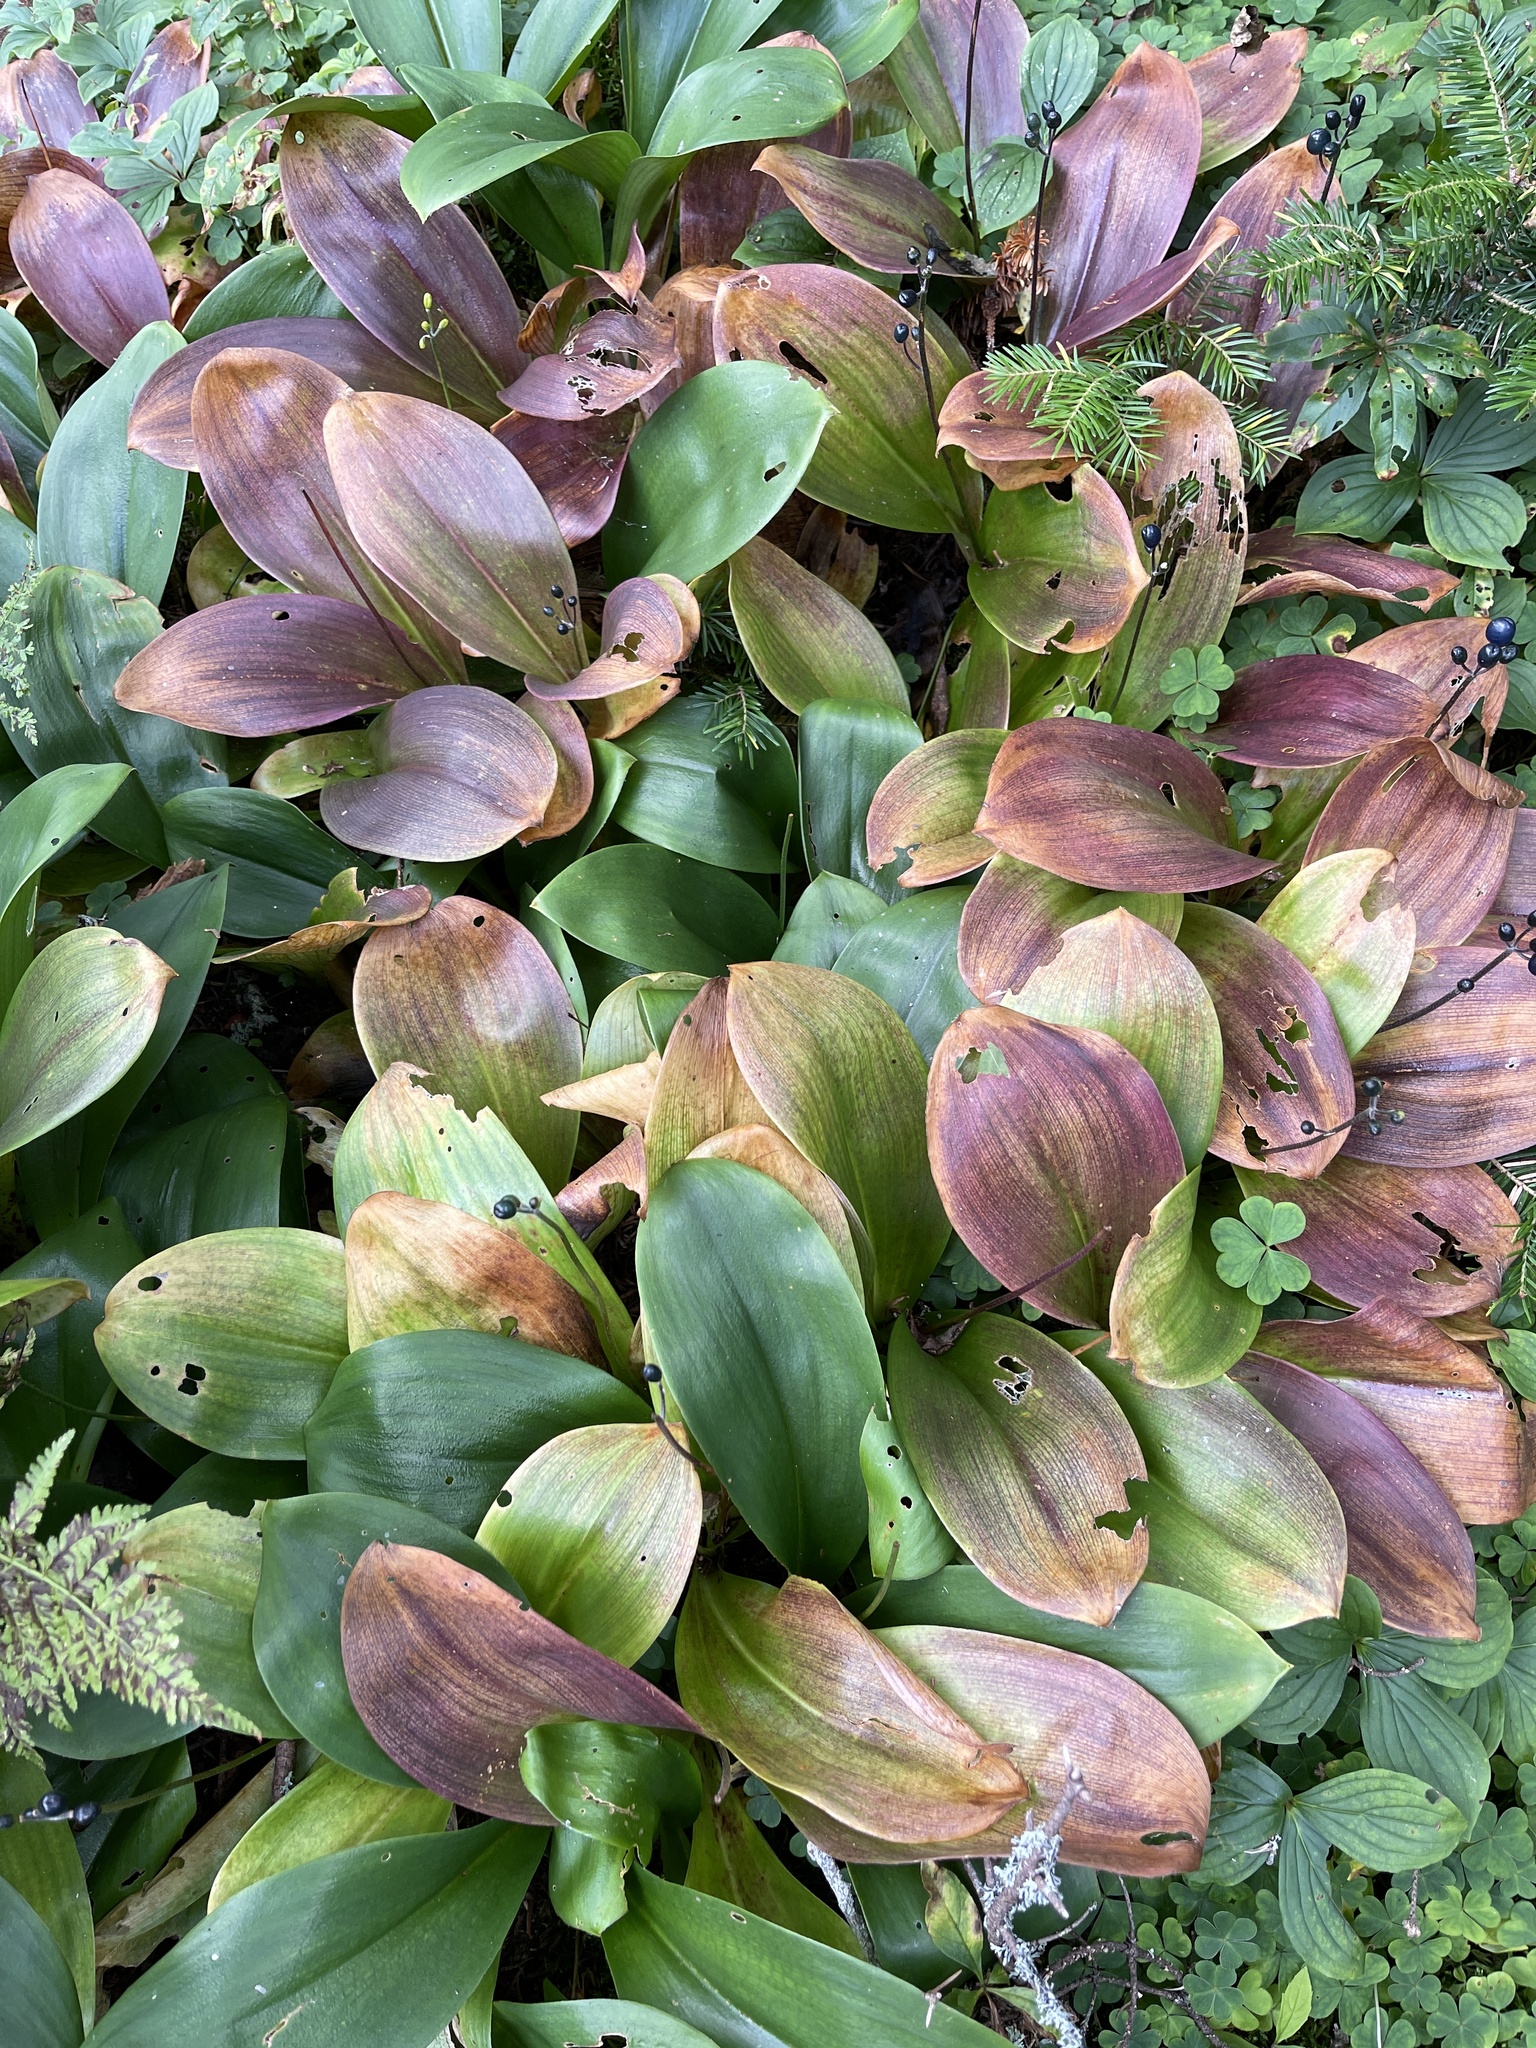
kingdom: Plantae
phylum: Tracheophyta
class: Liliopsida
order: Liliales
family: Liliaceae
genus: Clintonia
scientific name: Clintonia borealis
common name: Yellow clintonia
